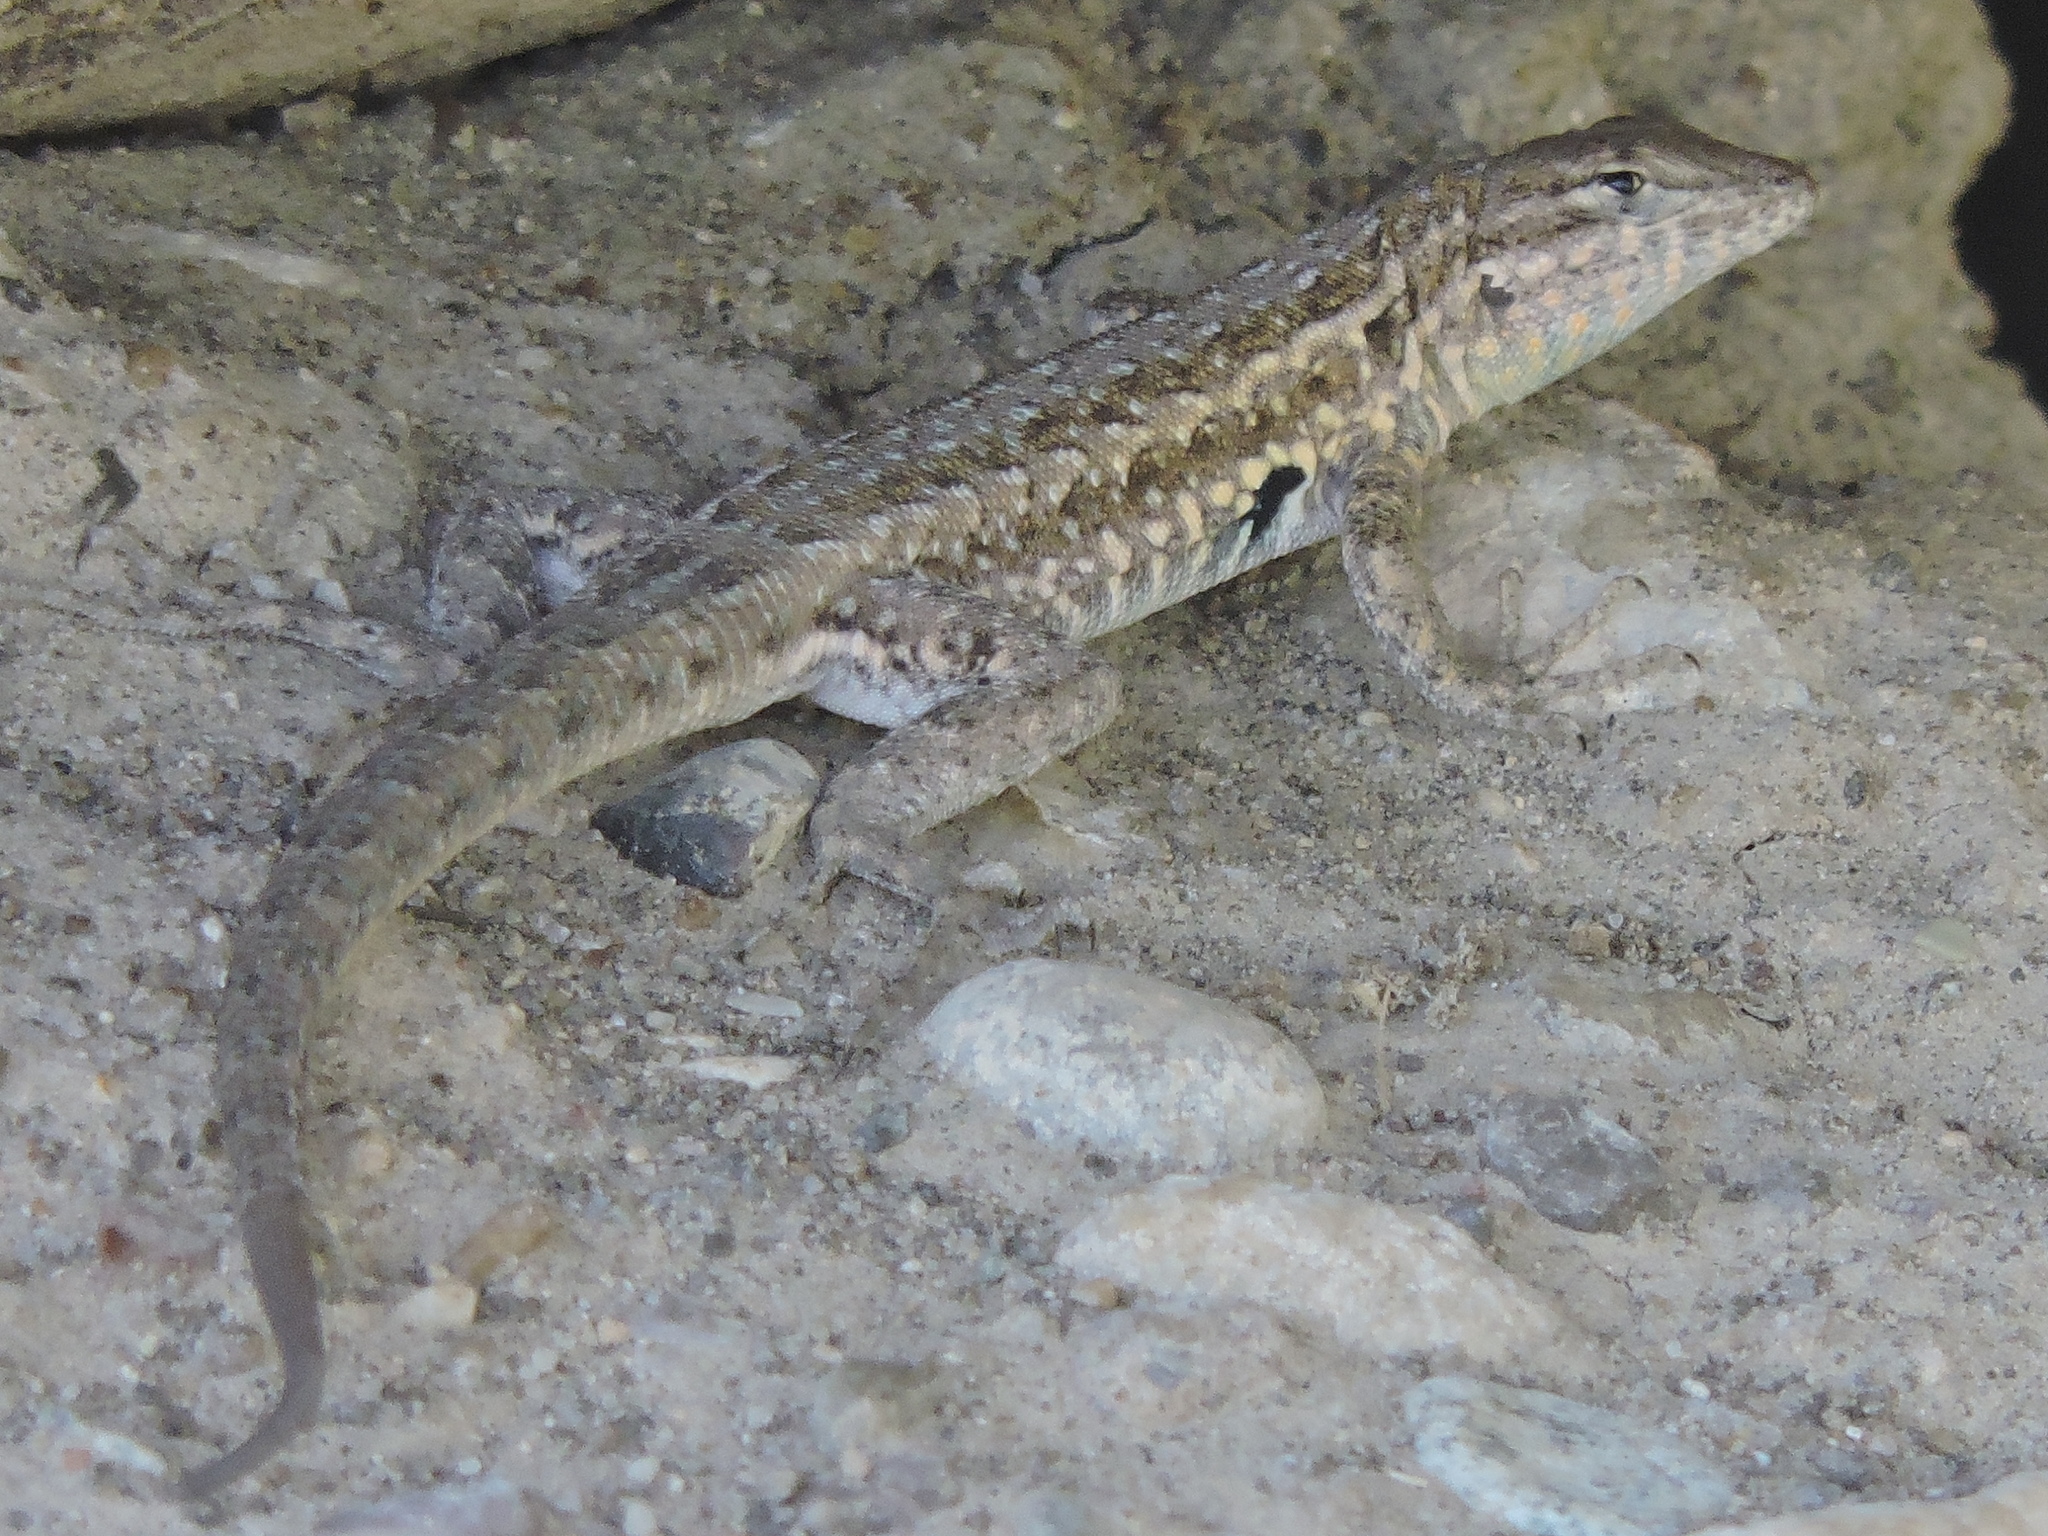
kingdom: Animalia
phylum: Chordata
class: Squamata
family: Phrynosomatidae
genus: Uta
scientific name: Uta stansburiana
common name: Side-blotched lizard
